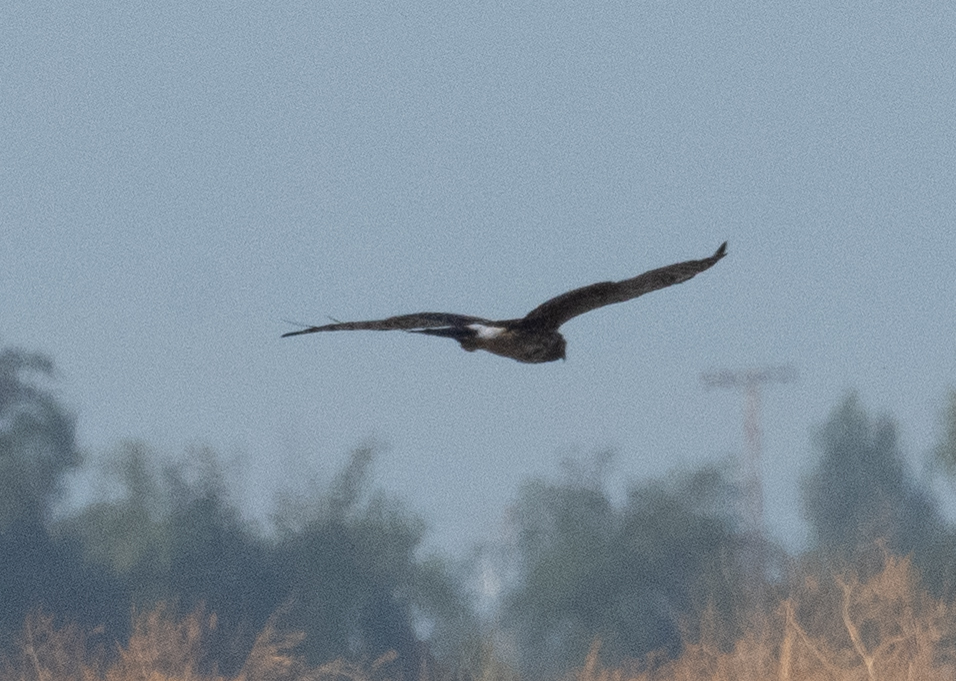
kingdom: Animalia
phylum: Chordata
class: Aves
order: Accipitriformes
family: Accipitridae
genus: Circus
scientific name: Circus cyaneus
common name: Hen harrier
